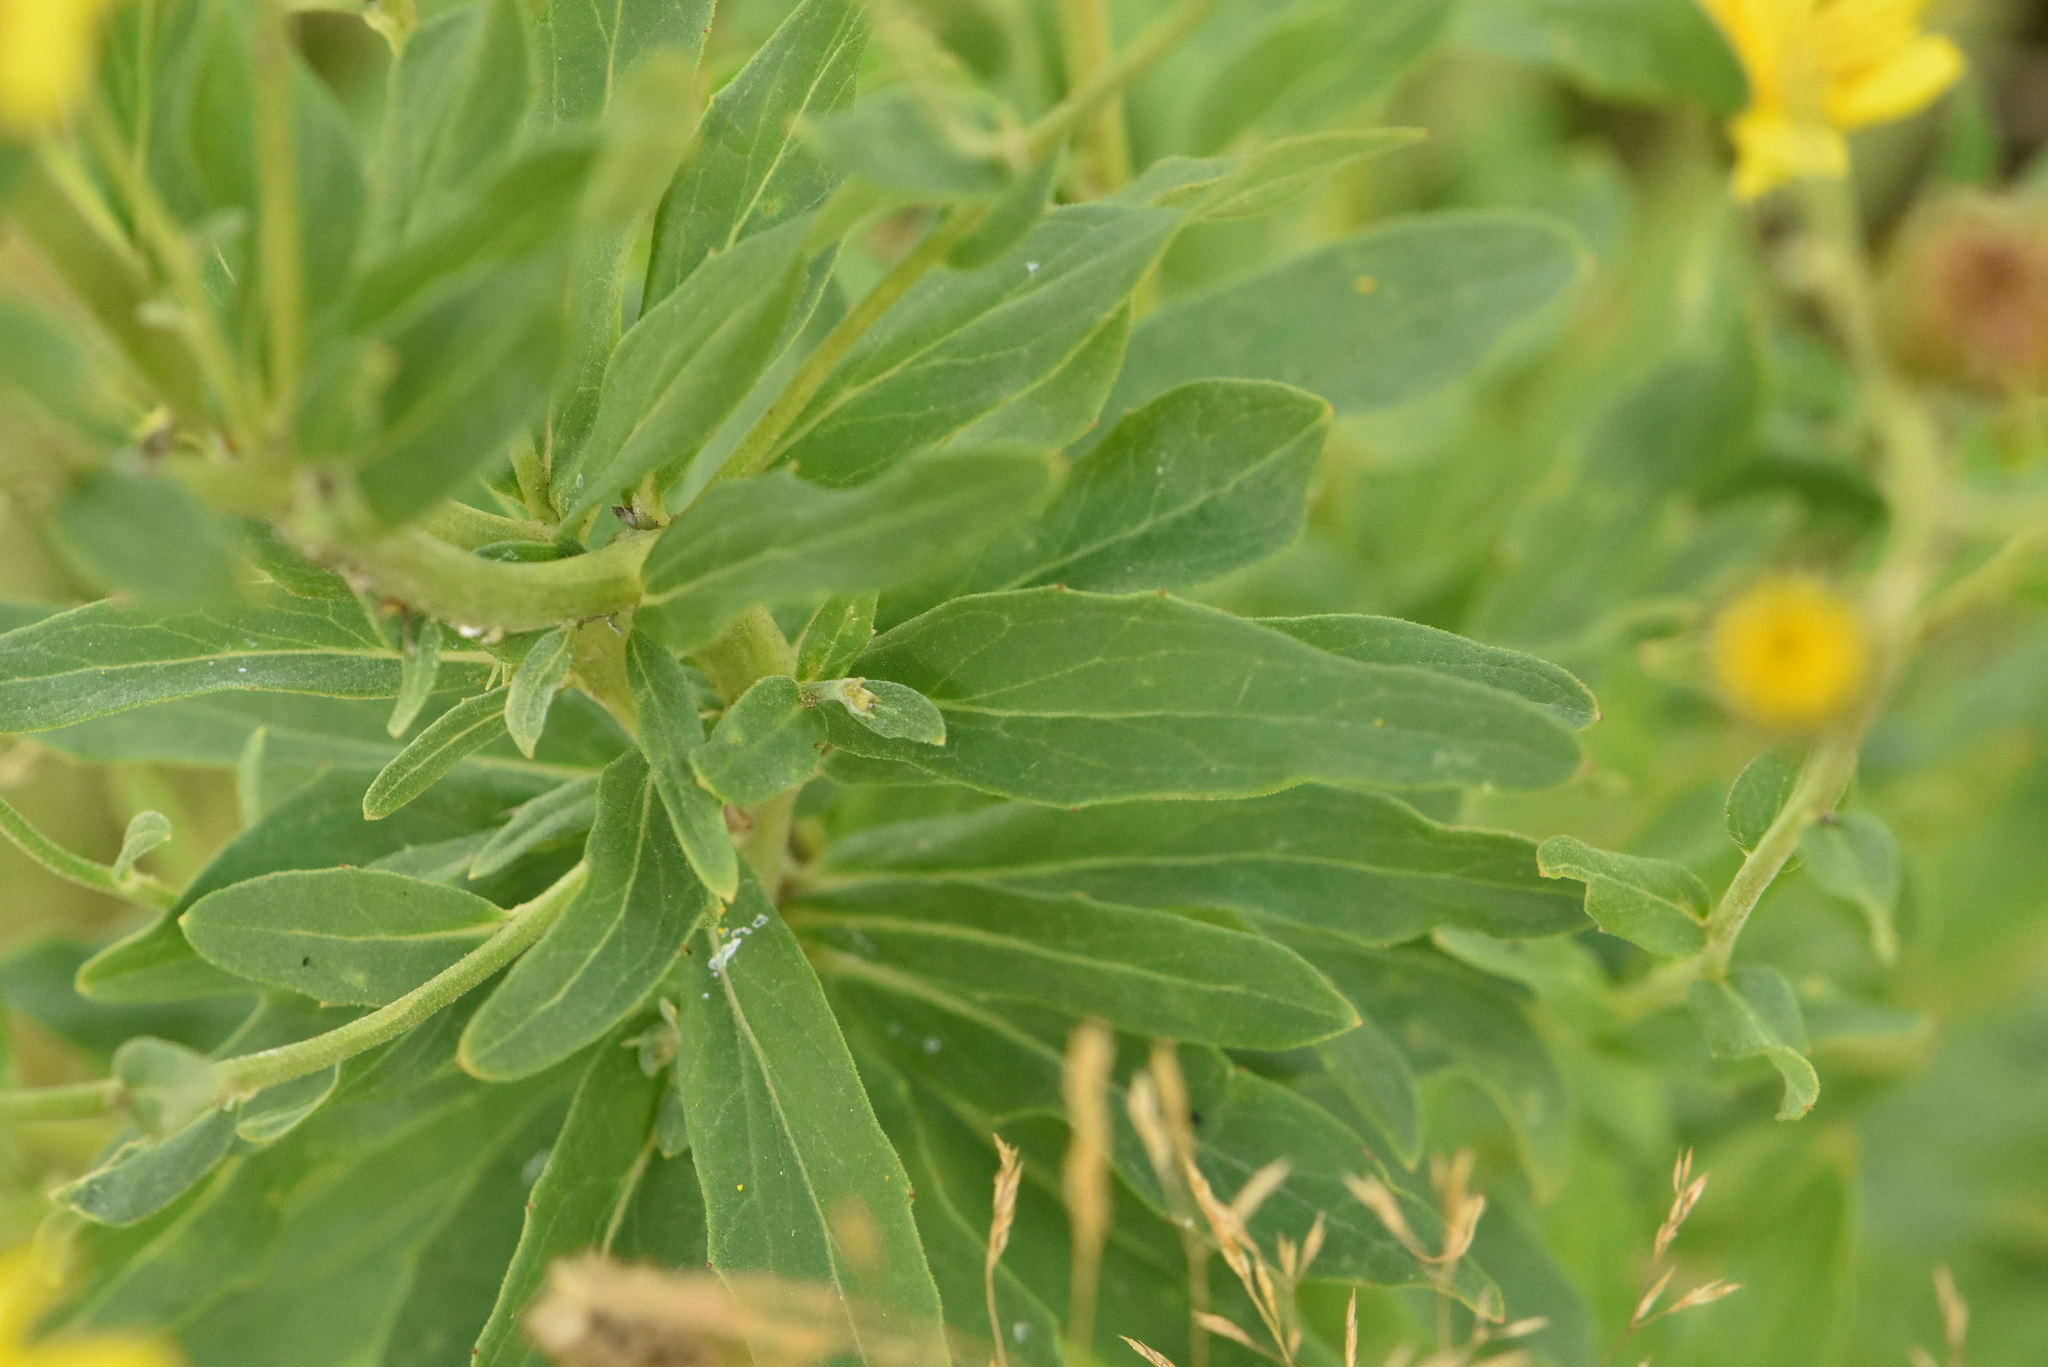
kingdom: Plantae
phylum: Tracheophyta
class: Magnoliopsida
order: Asterales
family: Asteraceae
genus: Hieracium
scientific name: Hieracium umbellatum
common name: Northern hawkweed
